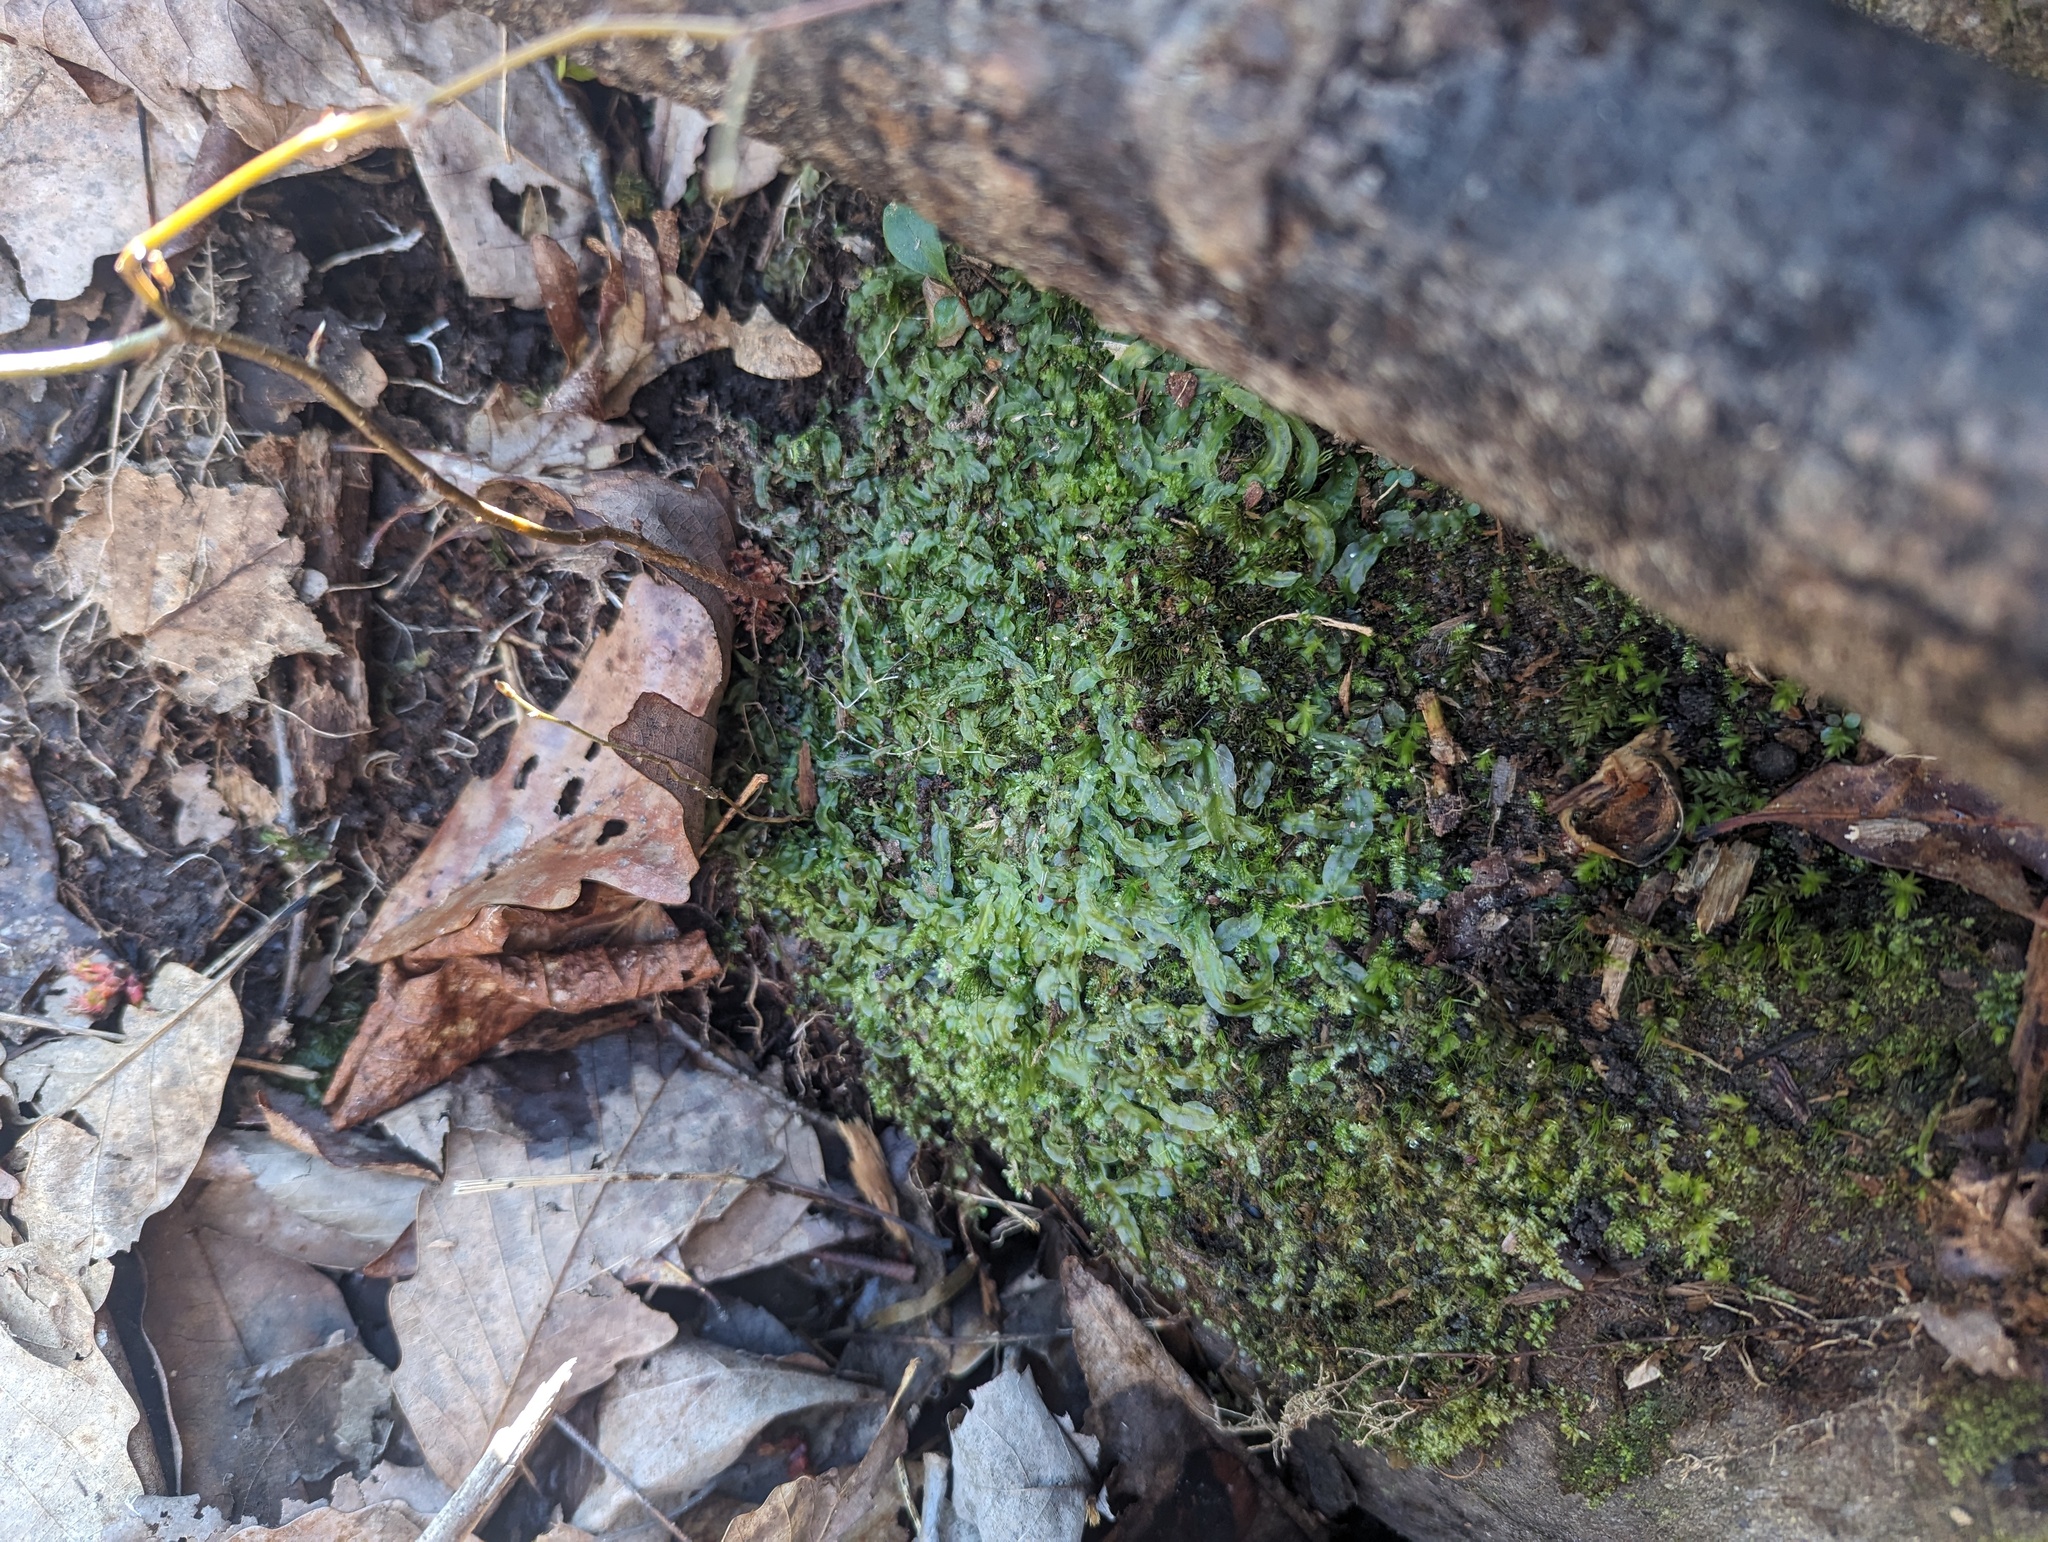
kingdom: Plantae
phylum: Marchantiophyta
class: Jungermanniopsida
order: Pallaviciniales
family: Pallaviciniaceae
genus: Pallavicinia
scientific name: Pallavicinia lyellii
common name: Veilwort
